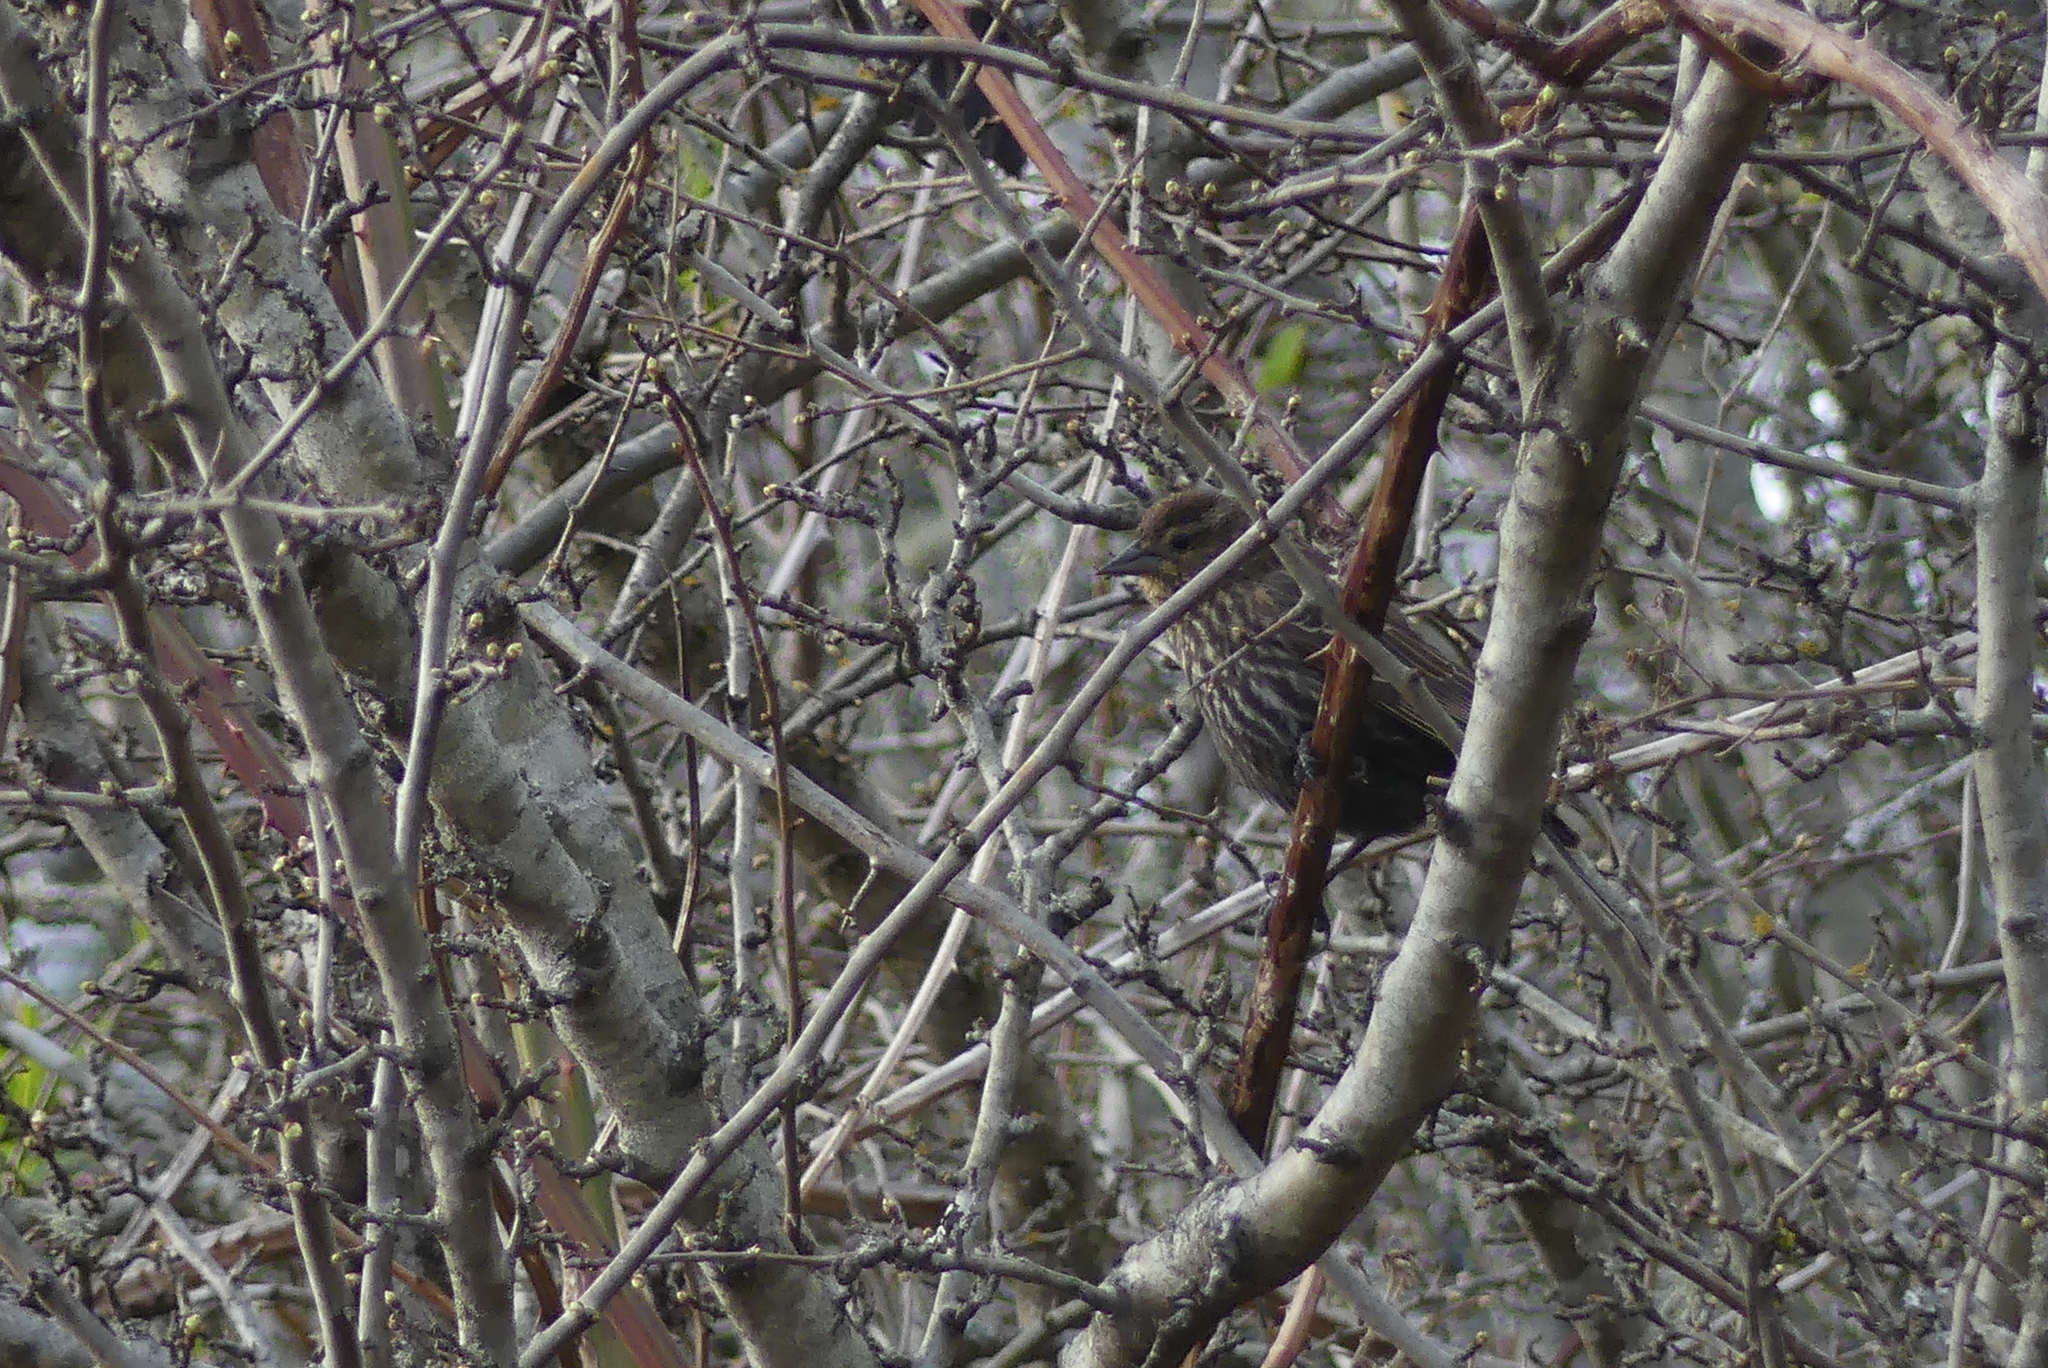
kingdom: Animalia
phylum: Chordata
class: Aves
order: Passeriformes
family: Icteridae
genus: Agelaius
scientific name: Agelaius phoeniceus
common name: Red-winged blackbird
